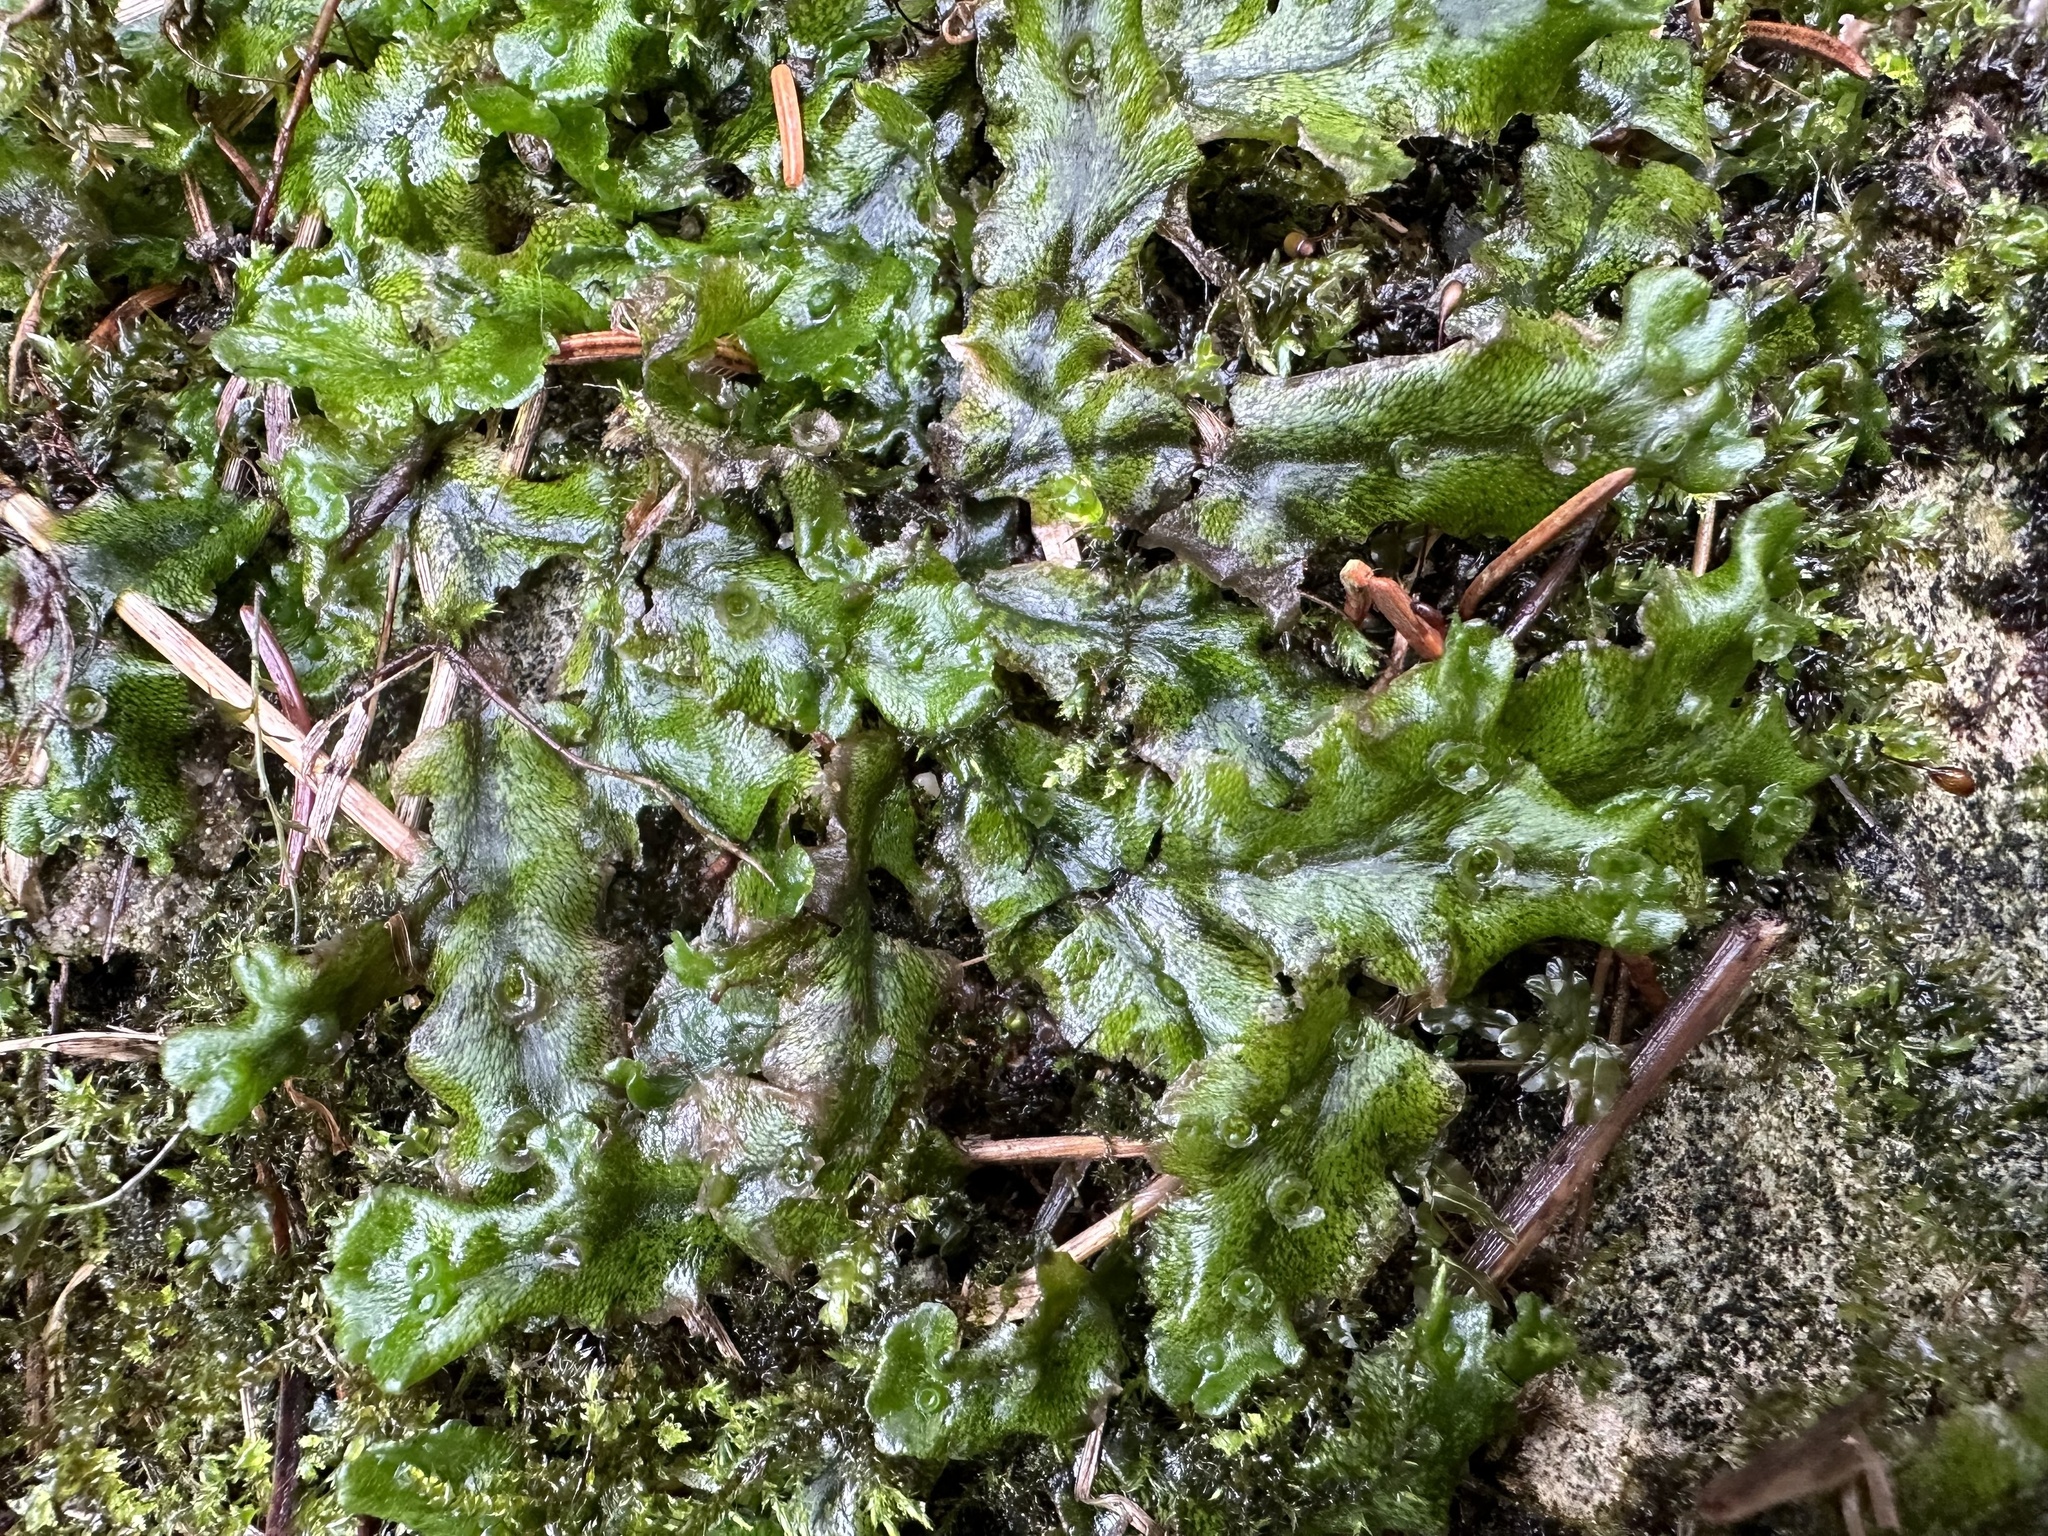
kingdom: Plantae
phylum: Marchantiophyta
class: Marchantiopsida
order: Marchantiales
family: Marchantiaceae
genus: Marchantia
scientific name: Marchantia polymorpha
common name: Common liverwort
